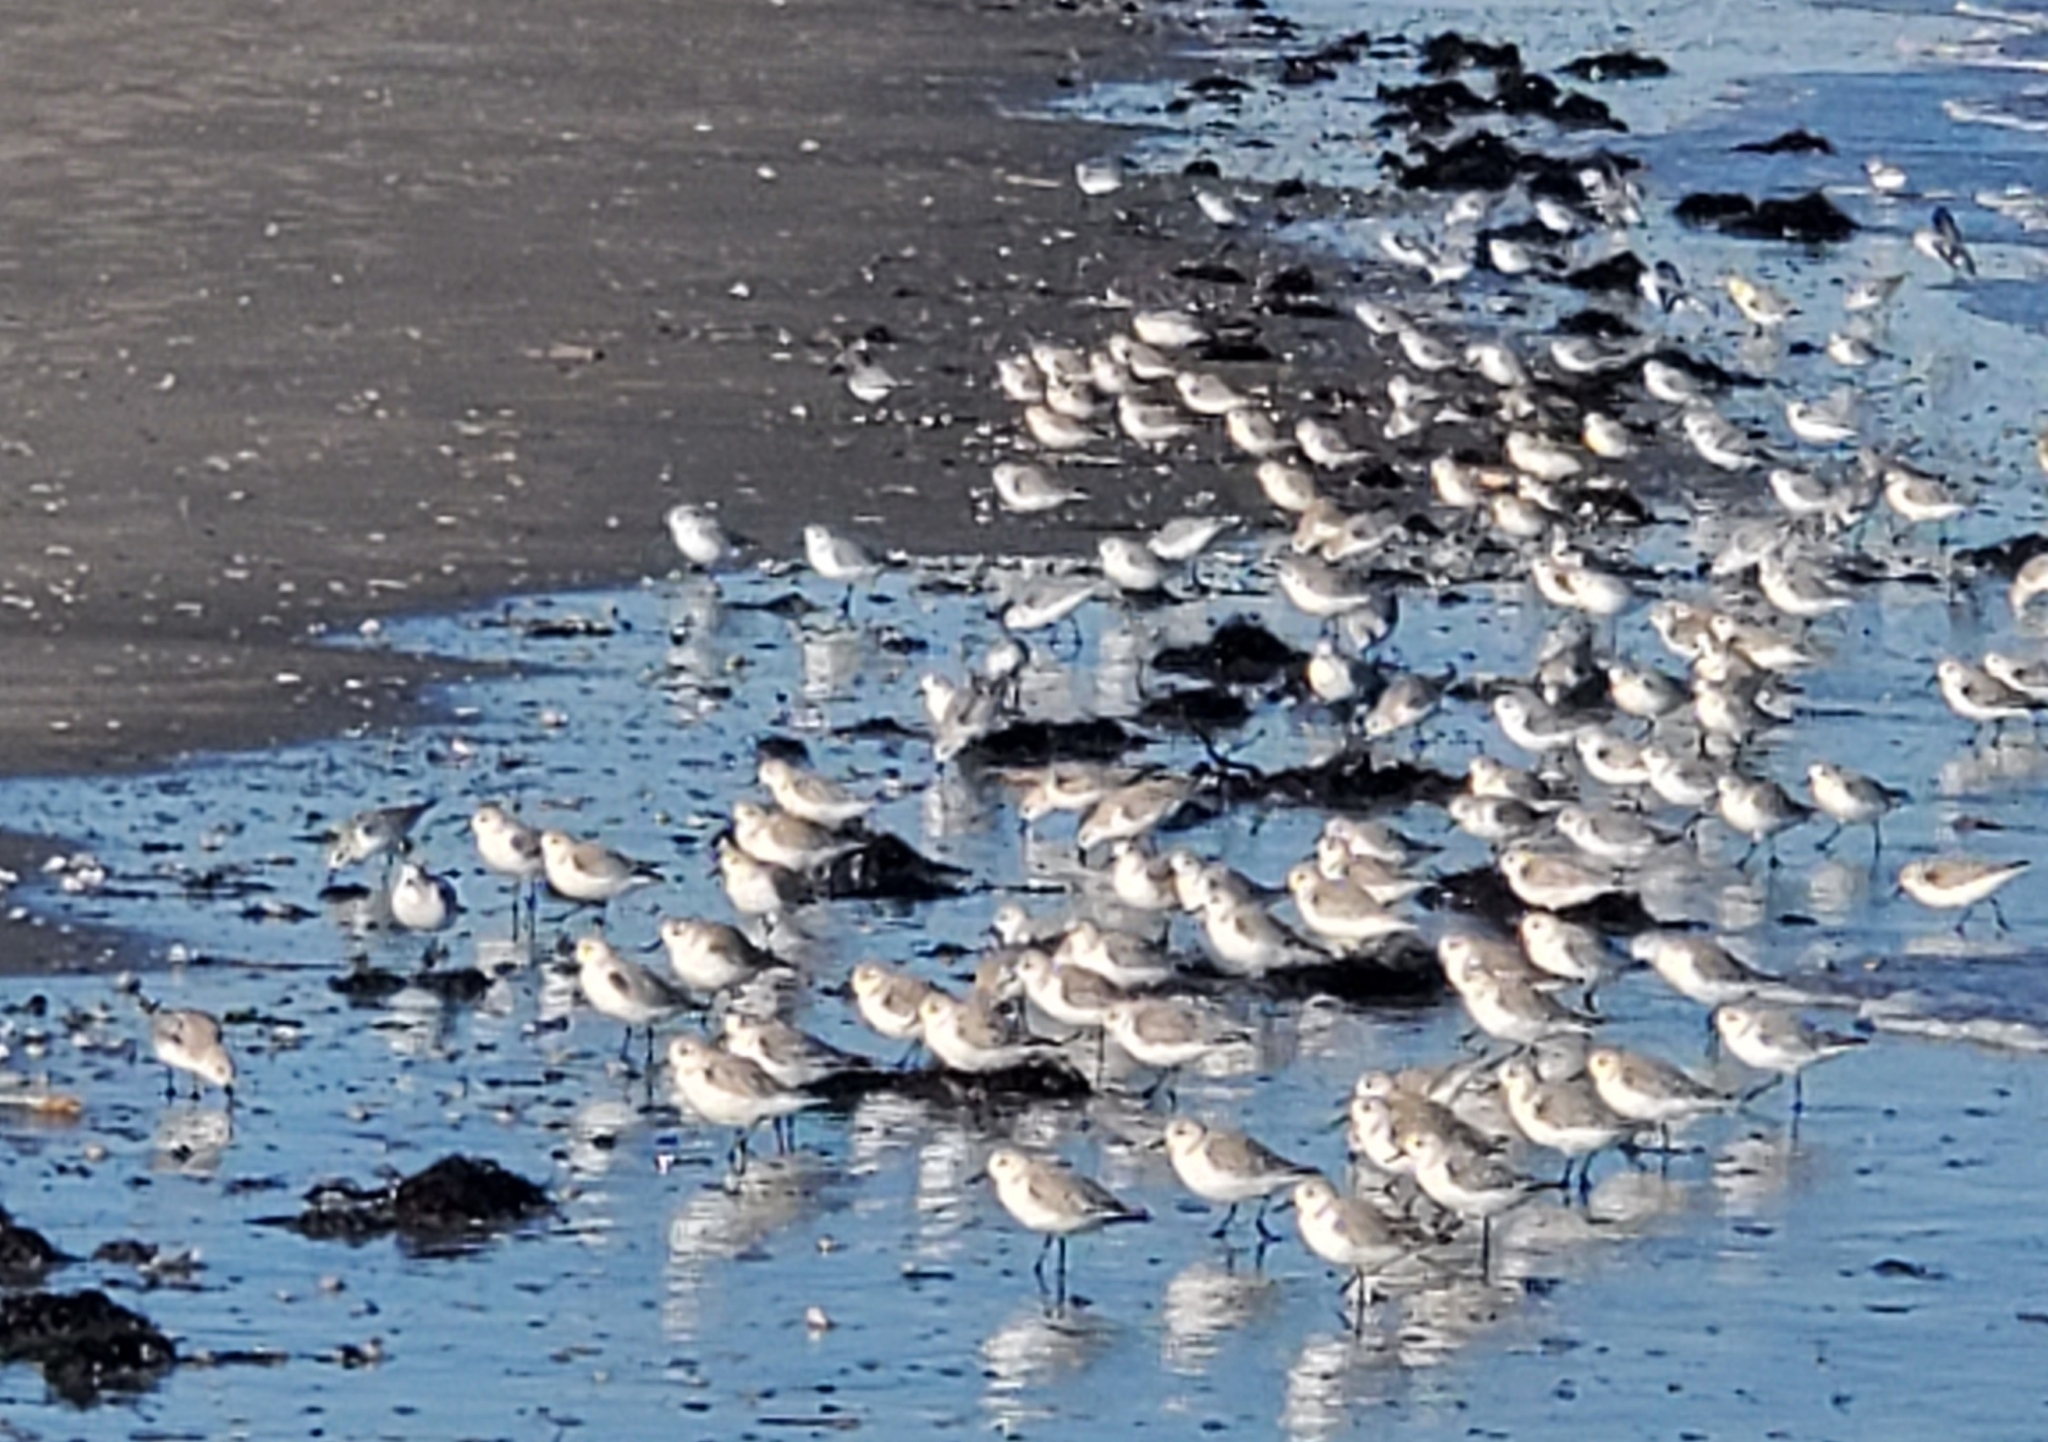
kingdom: Animalia
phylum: Chordata
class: Aves
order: Charadriiformes
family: Scolopacidae
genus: Calidris
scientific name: Calidris alba
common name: Sanderling
